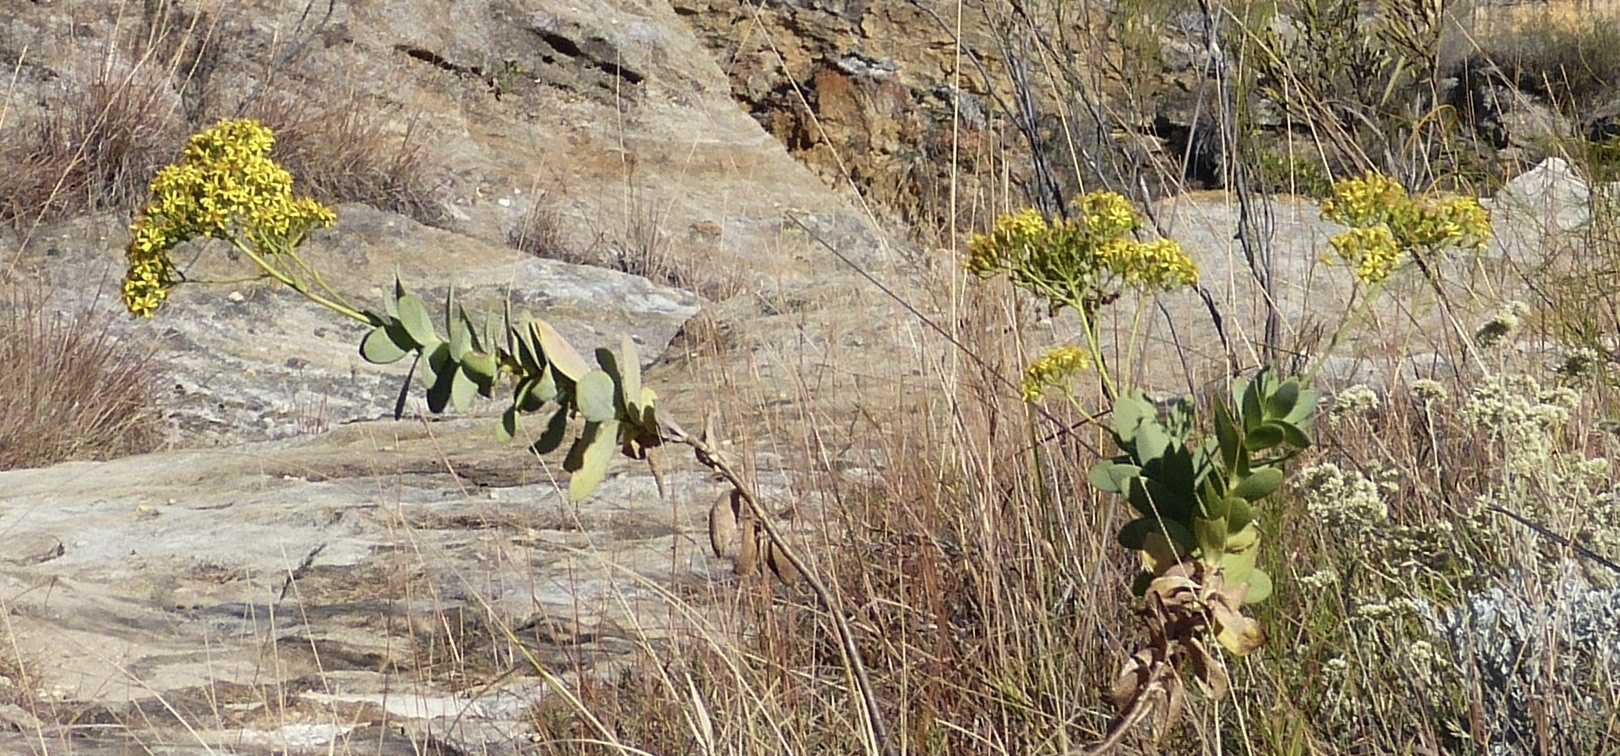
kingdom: Plantae
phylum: Tracheophyta
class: Magnoliopsida
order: Asterales
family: Asteraceae
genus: Senecio
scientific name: Senecio crassissimus
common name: Vertical-leaf
